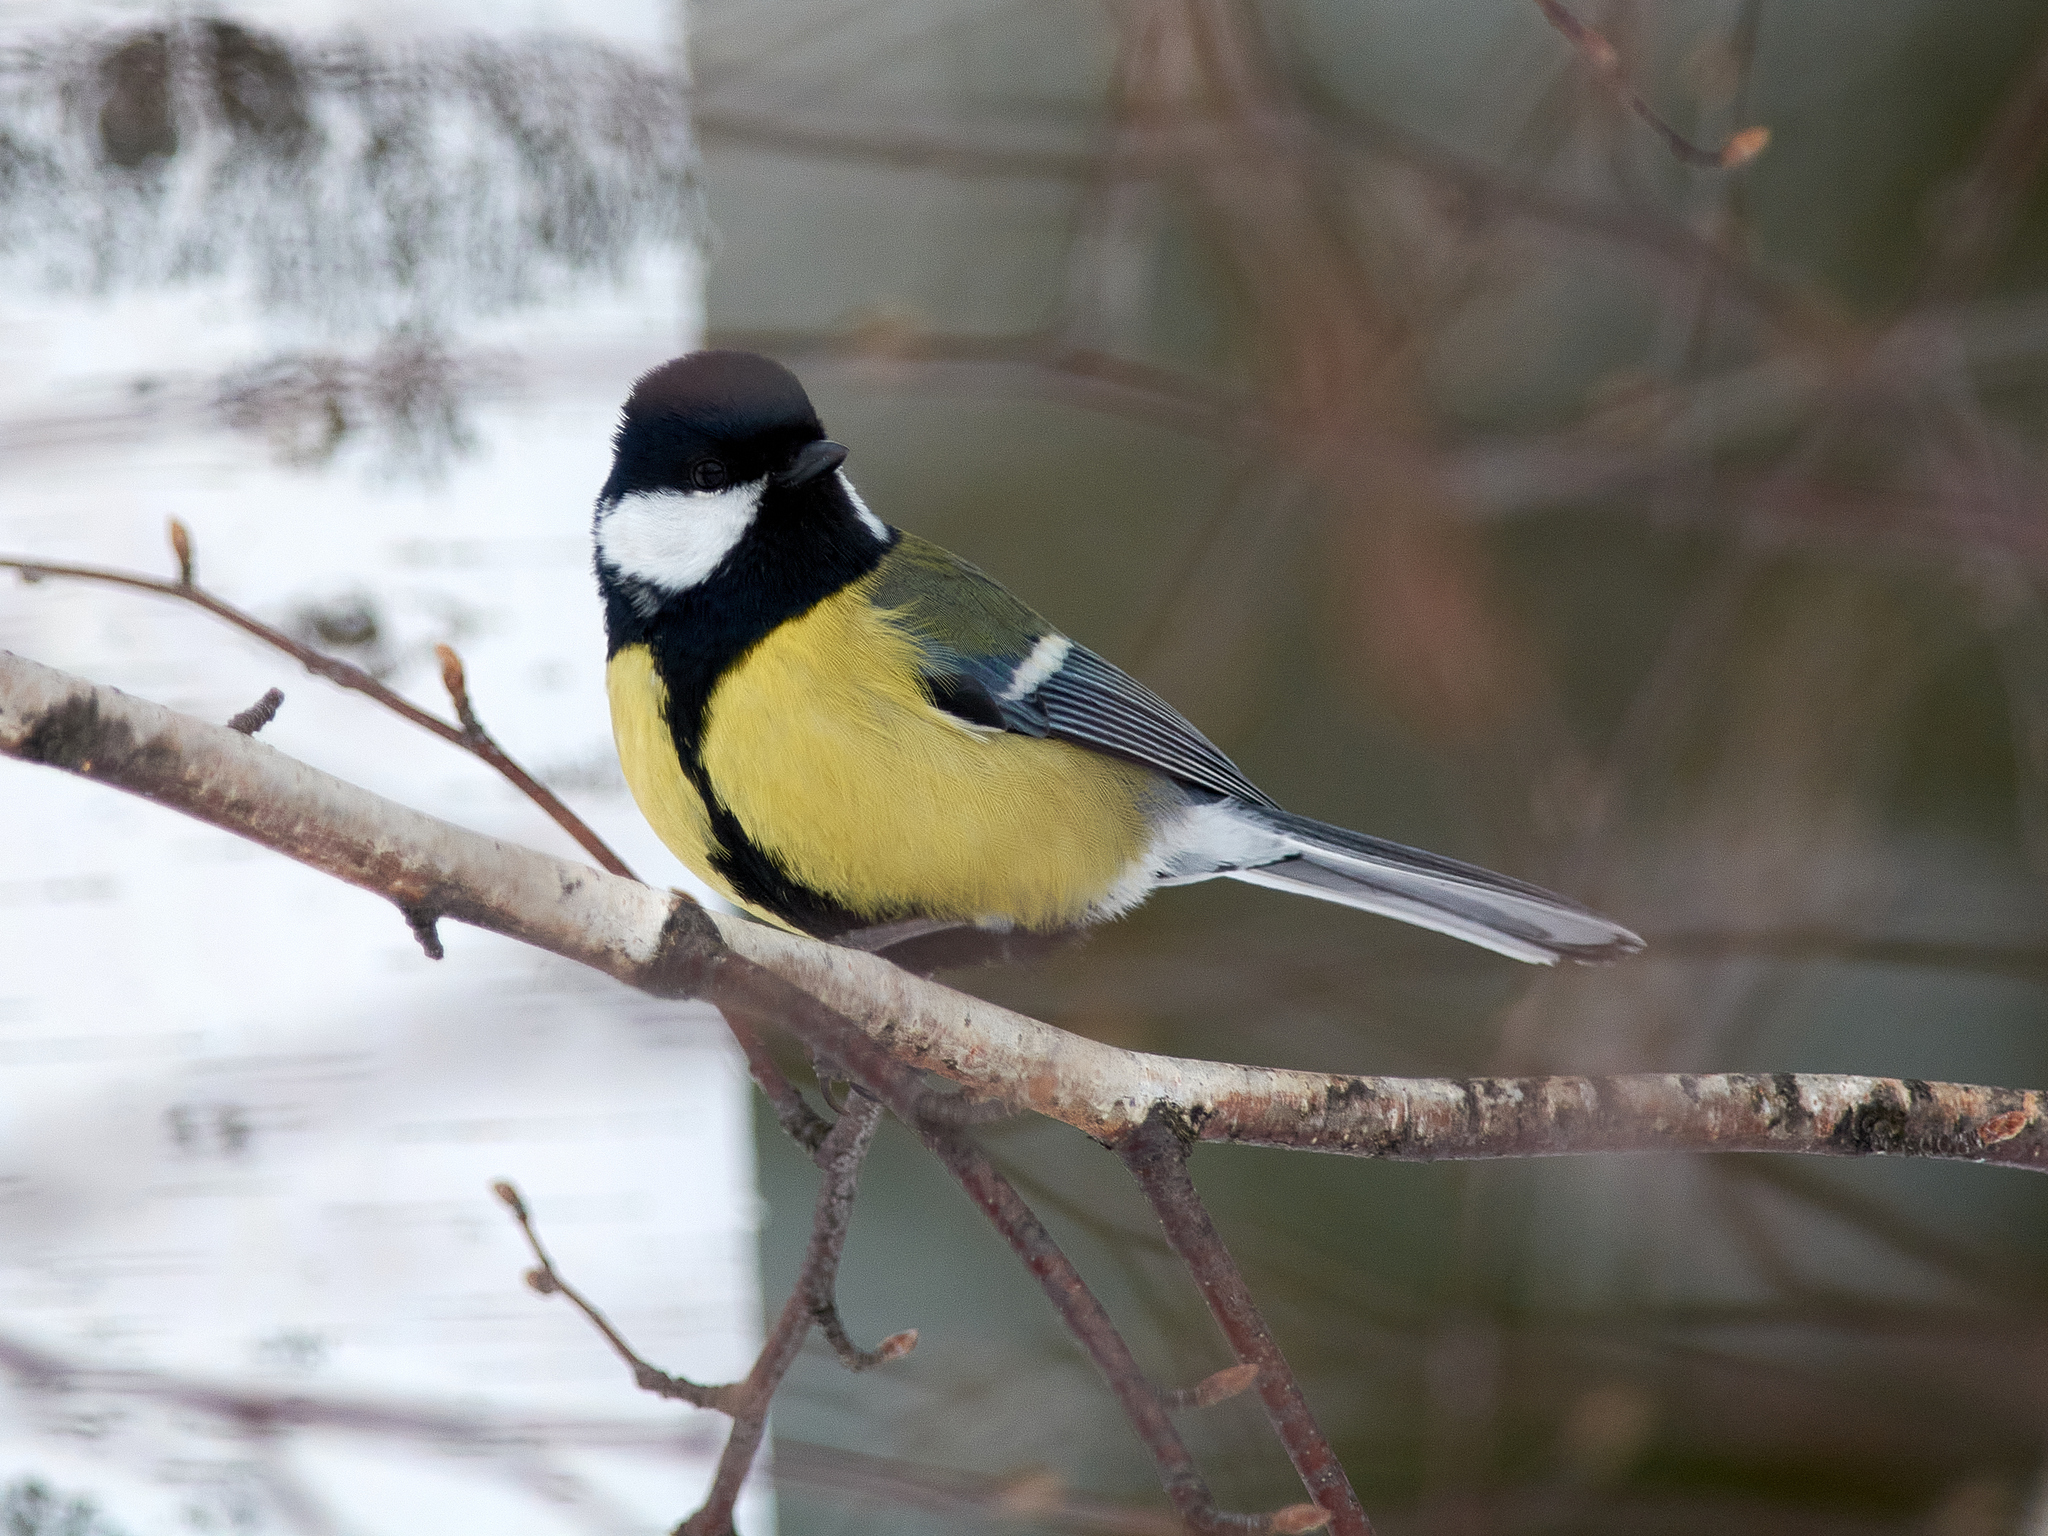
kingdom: Animalia
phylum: Chordata
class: Aves
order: Passeriformes
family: Paridae
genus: Parus
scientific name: Parus major
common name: Great tit
